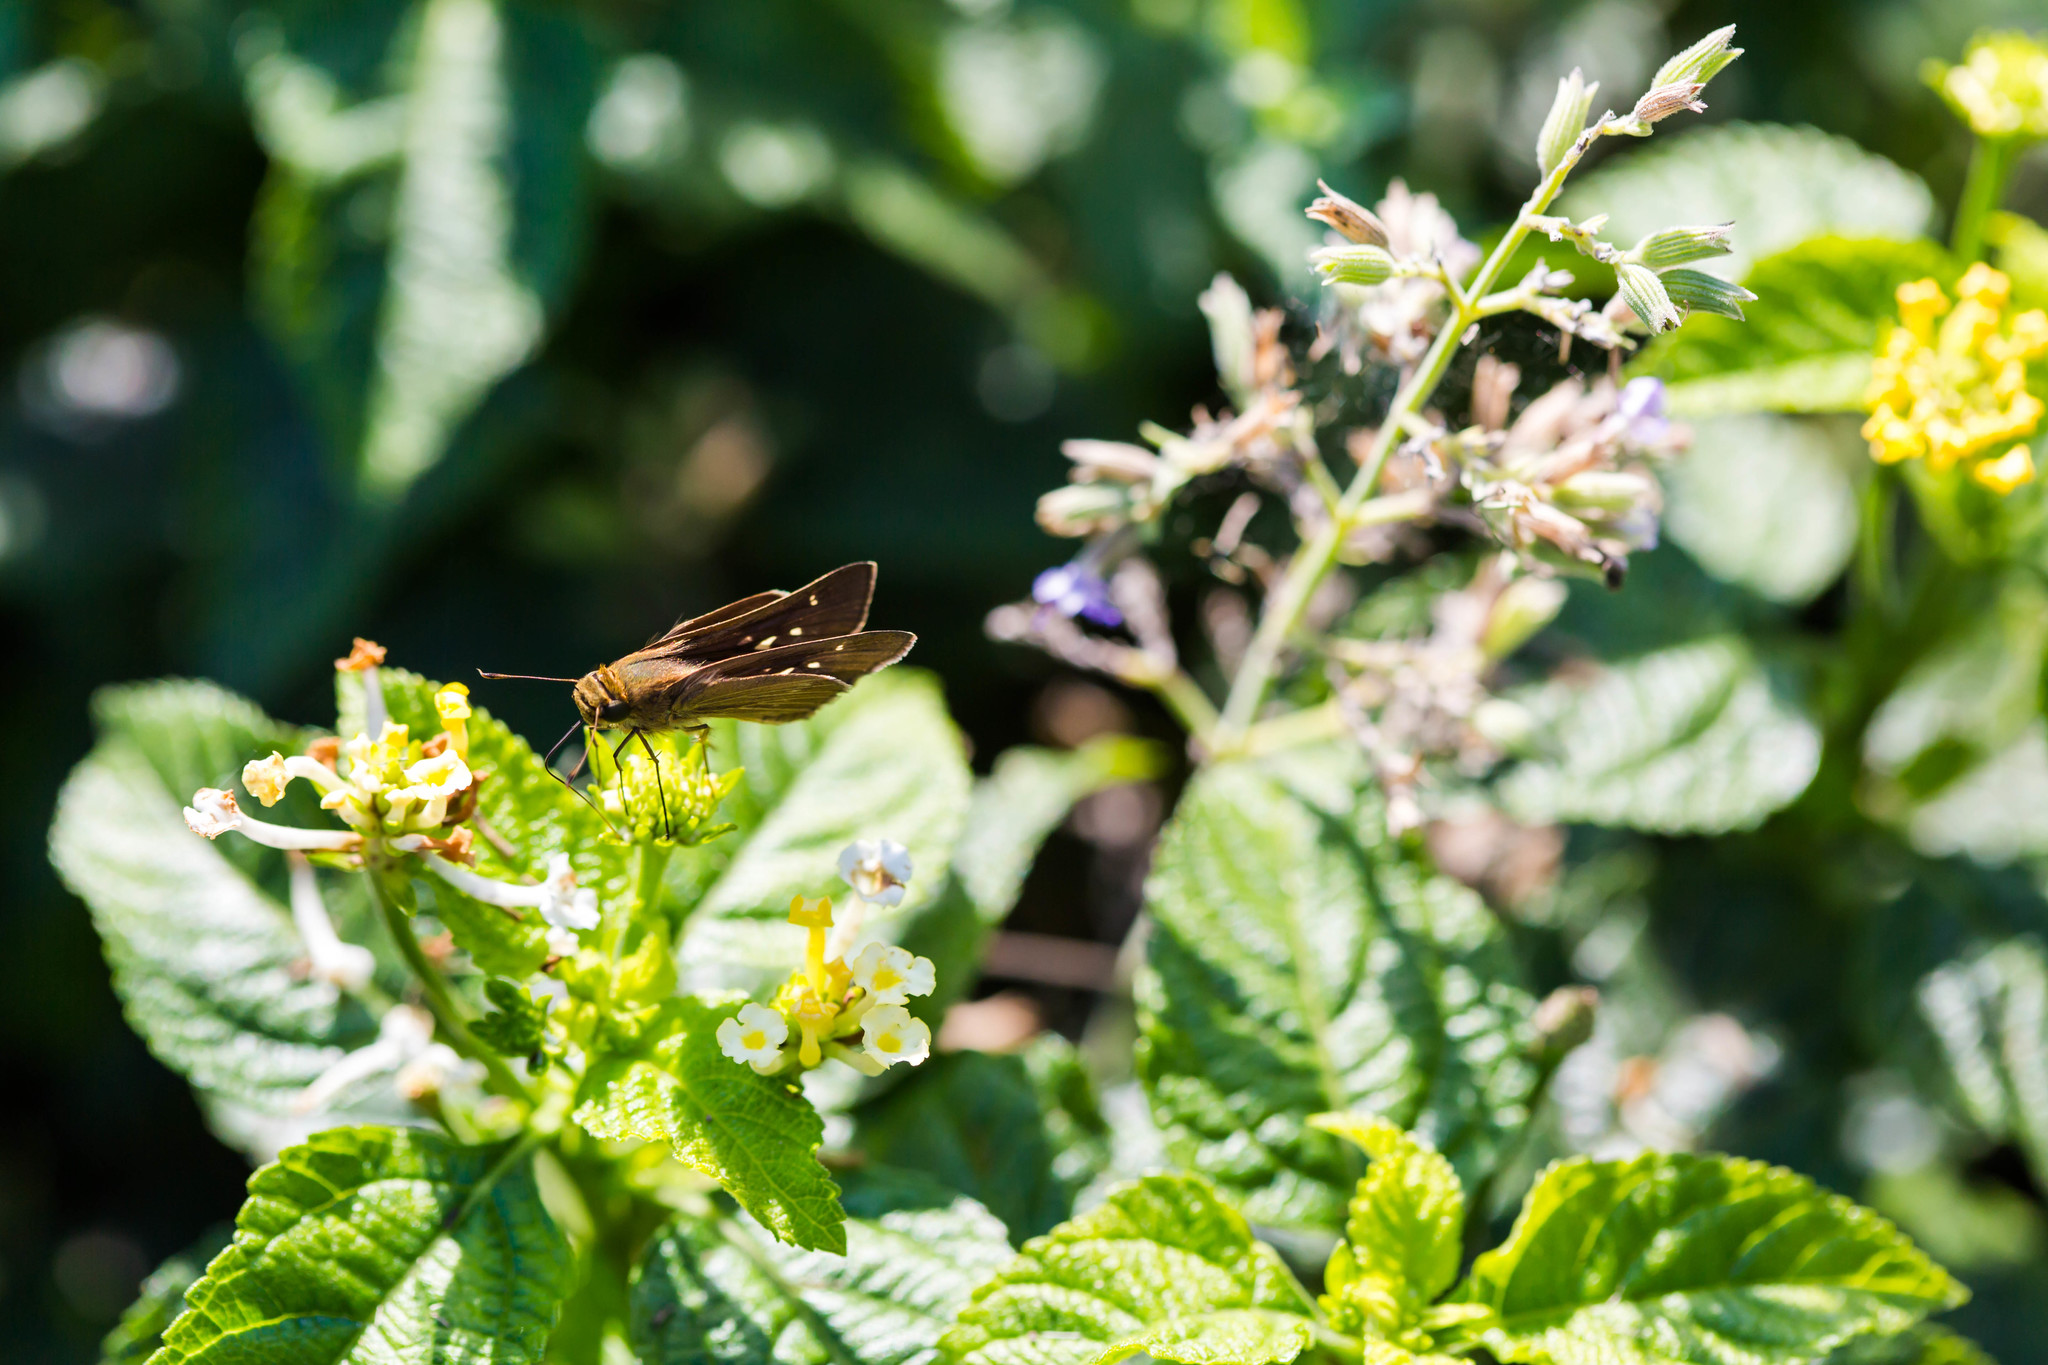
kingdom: Animalia
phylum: Arthropoda
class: Insecta
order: Lepidoptera
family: Hesperiidae
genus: Panoquina
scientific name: Panoquina ocola
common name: Ocola skipper
